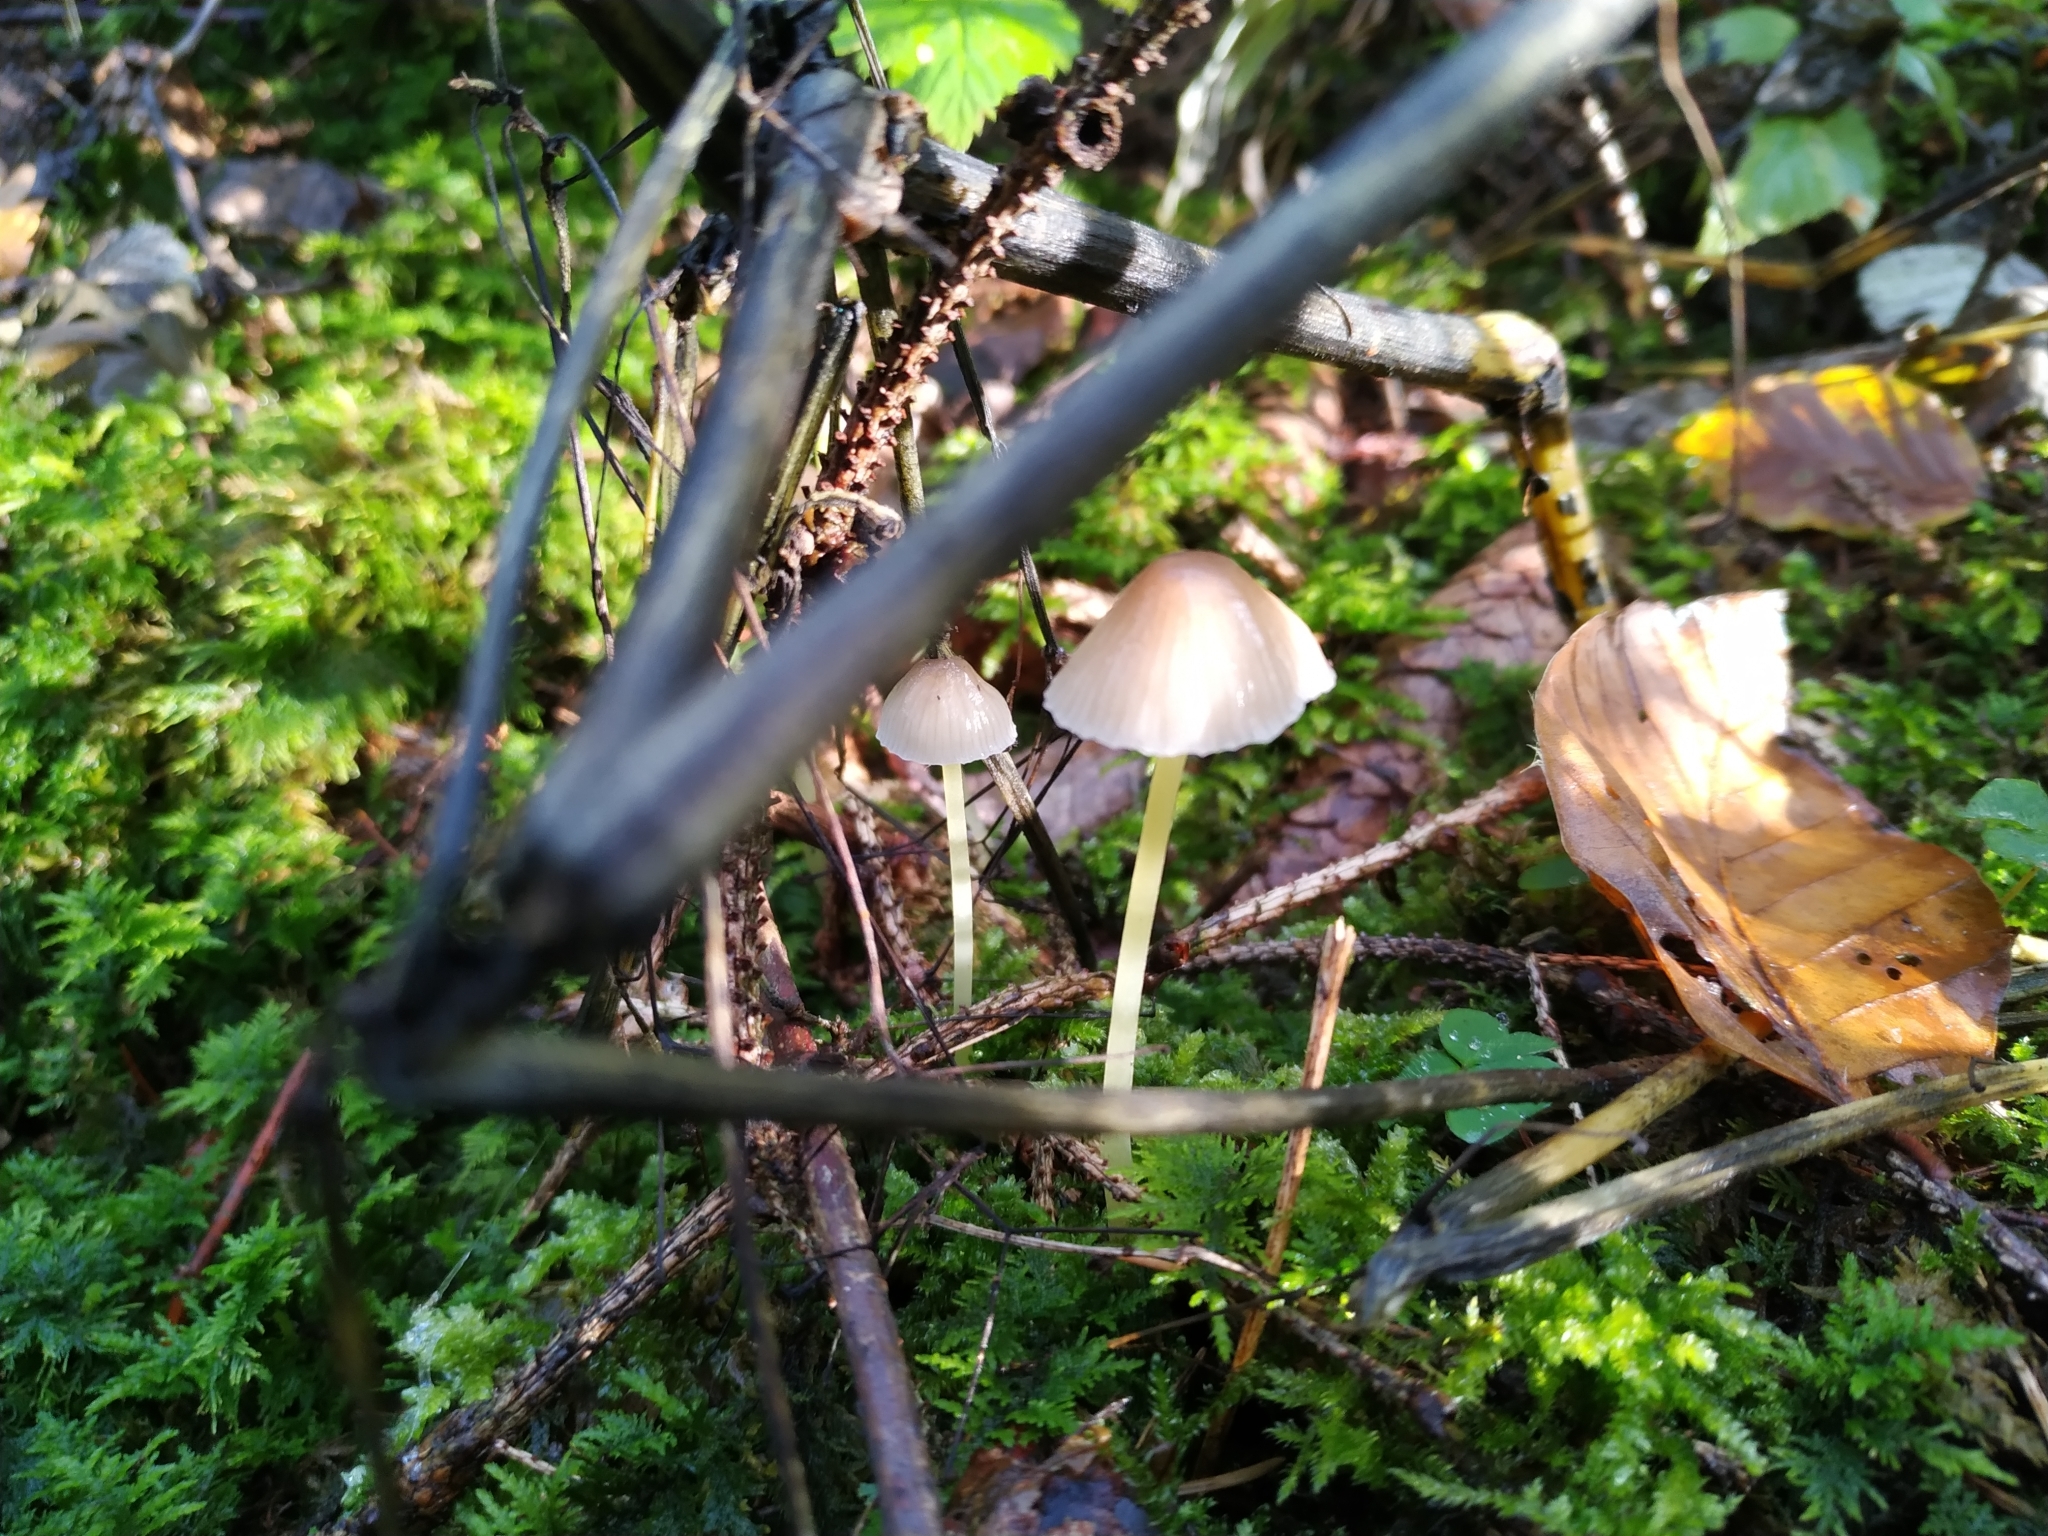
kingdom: Fungi
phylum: Basidiomycota
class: Agaricomycetes
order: Agaricales
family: Mycenaceae
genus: Mycena
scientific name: Mycena epipterygia
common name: Yellowleg bonnet
